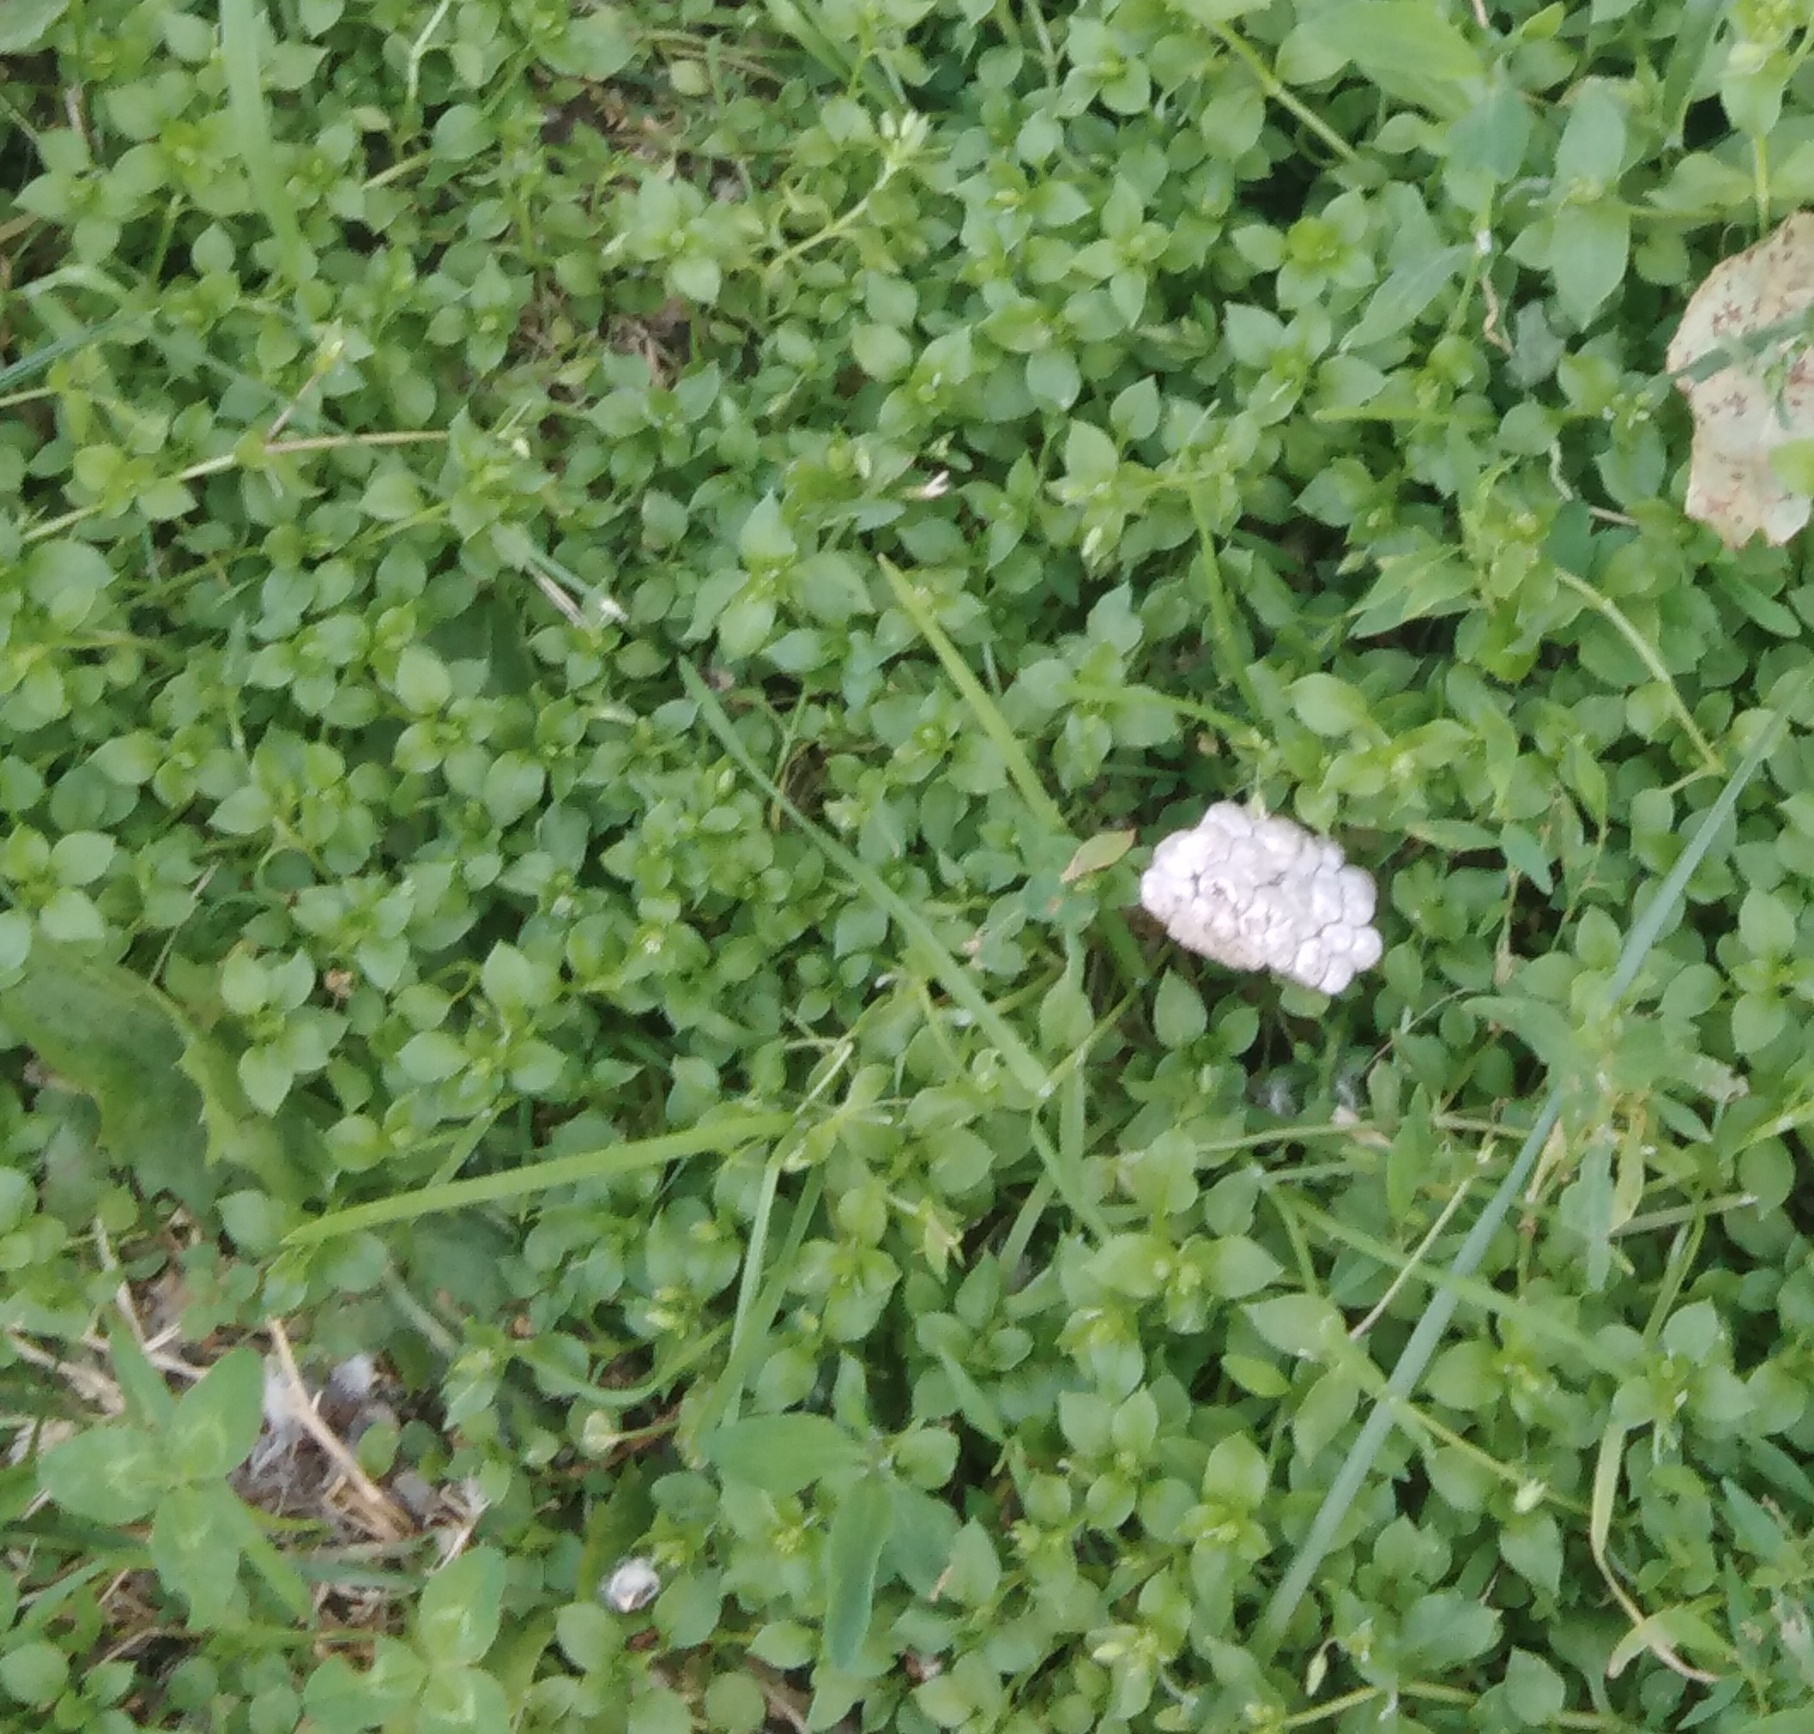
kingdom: Plantae
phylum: Tracheophyta
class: Magnoliopsida
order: Caryophyllales
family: Caryophyllaceae
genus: Stellaria
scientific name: Stellaria media
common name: Common chickweed
